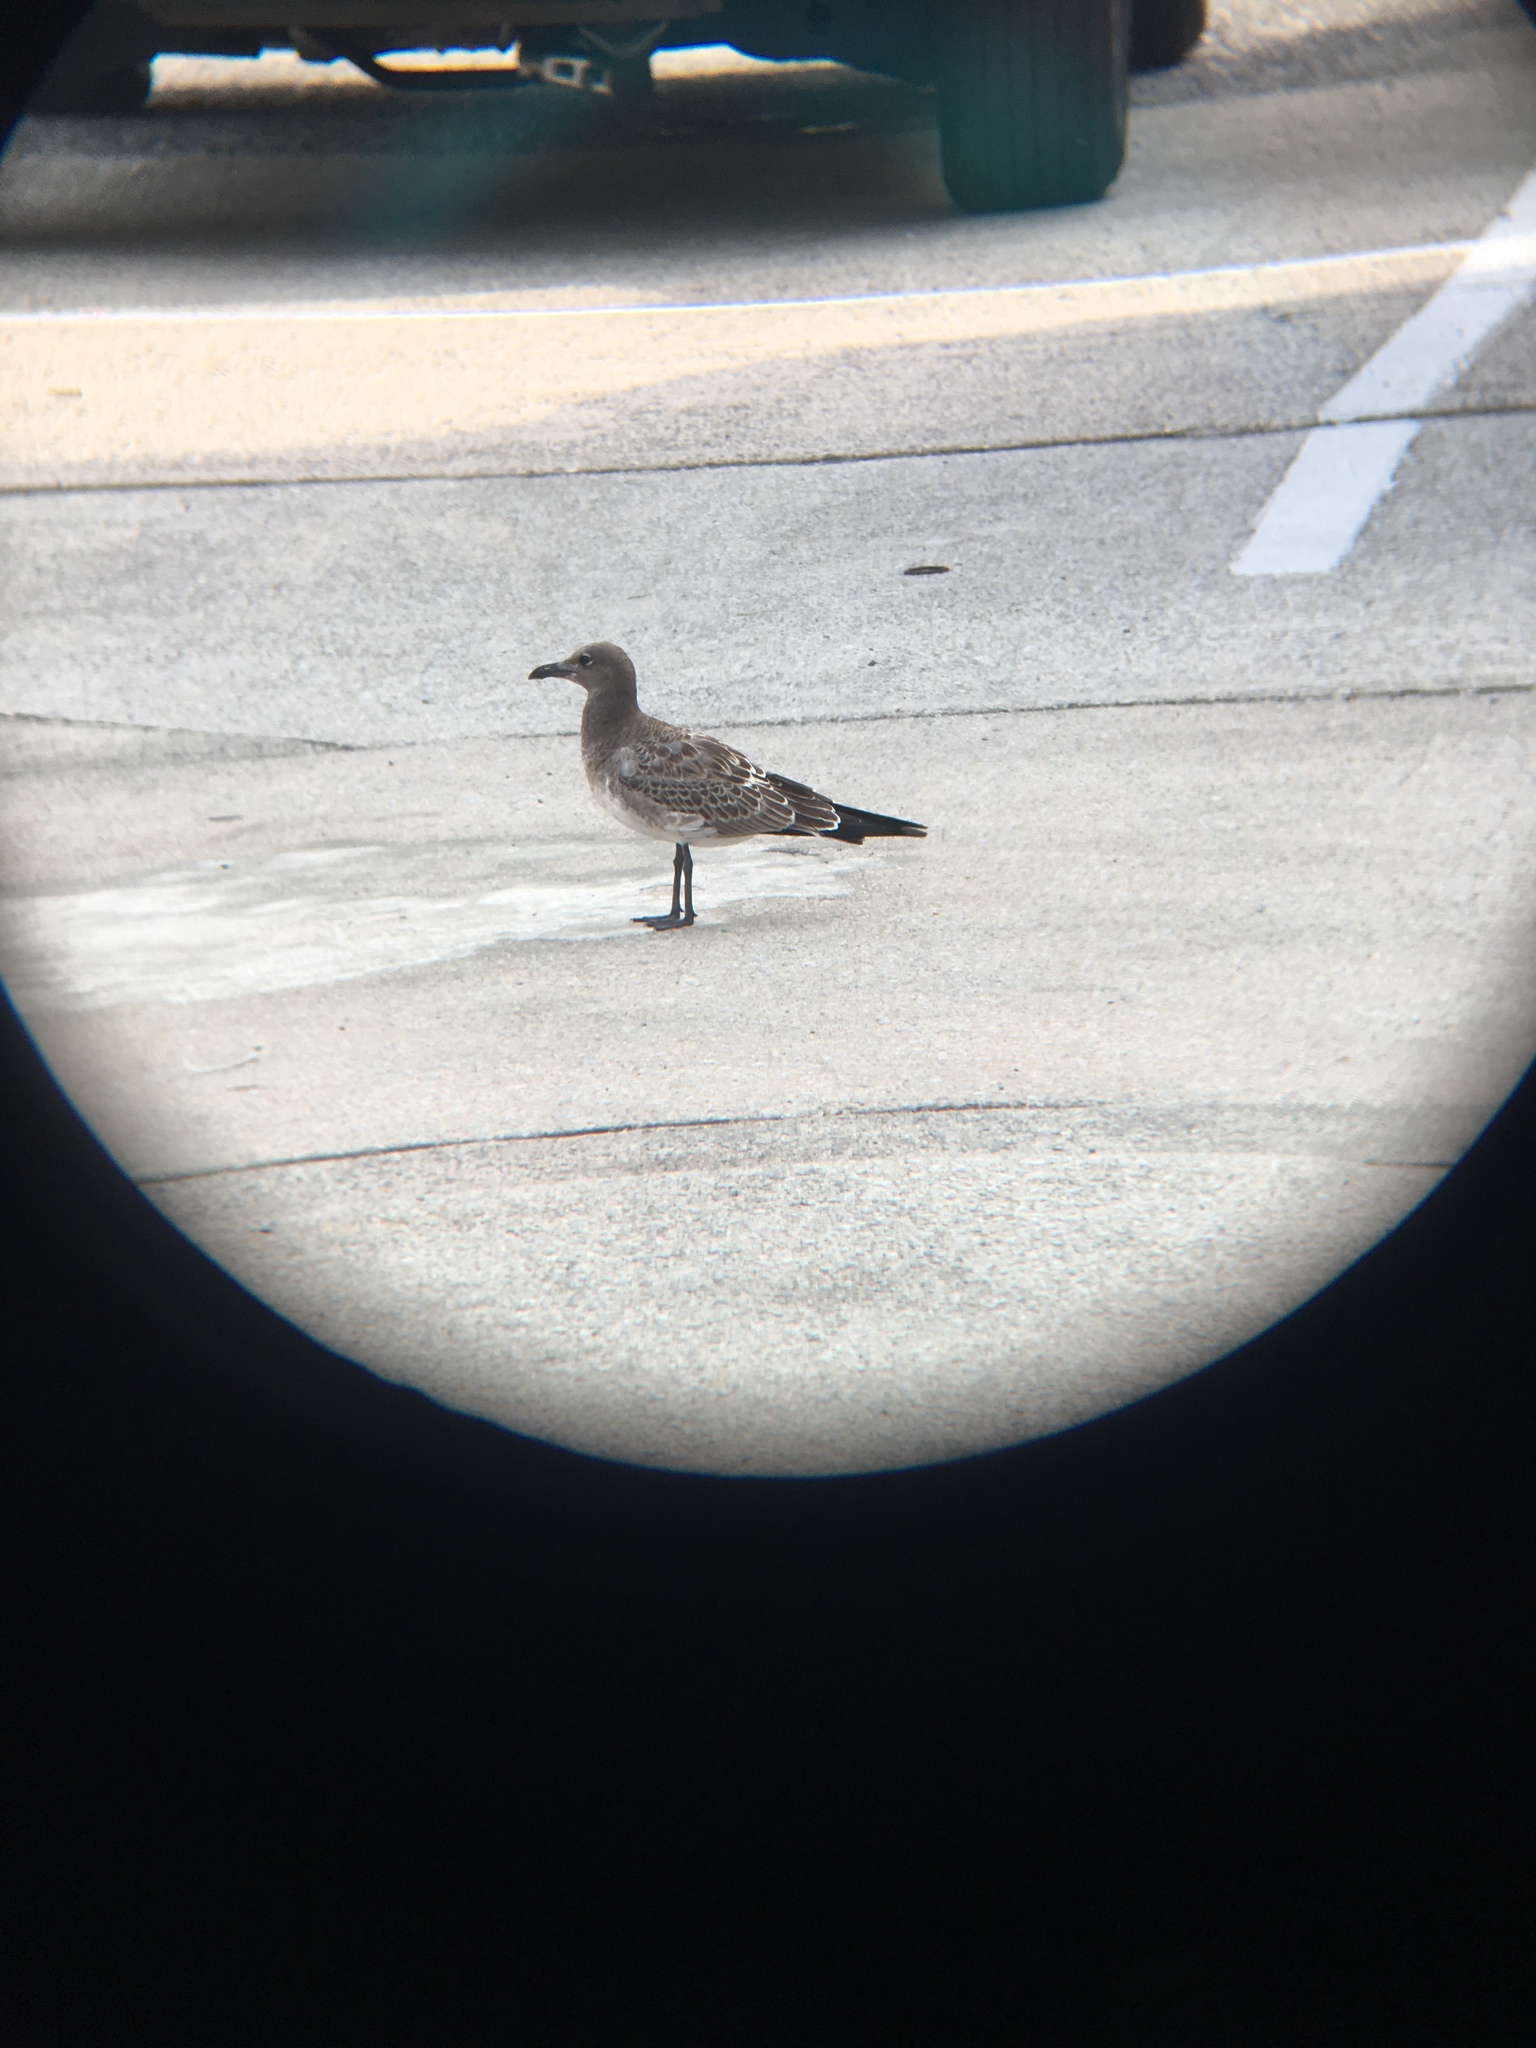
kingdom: Animalia
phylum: Chordata
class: Aves
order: Charadriiformes
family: Laridae
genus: Leucophaeus
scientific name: Leucophaeus atricilla
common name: Laughing gull
